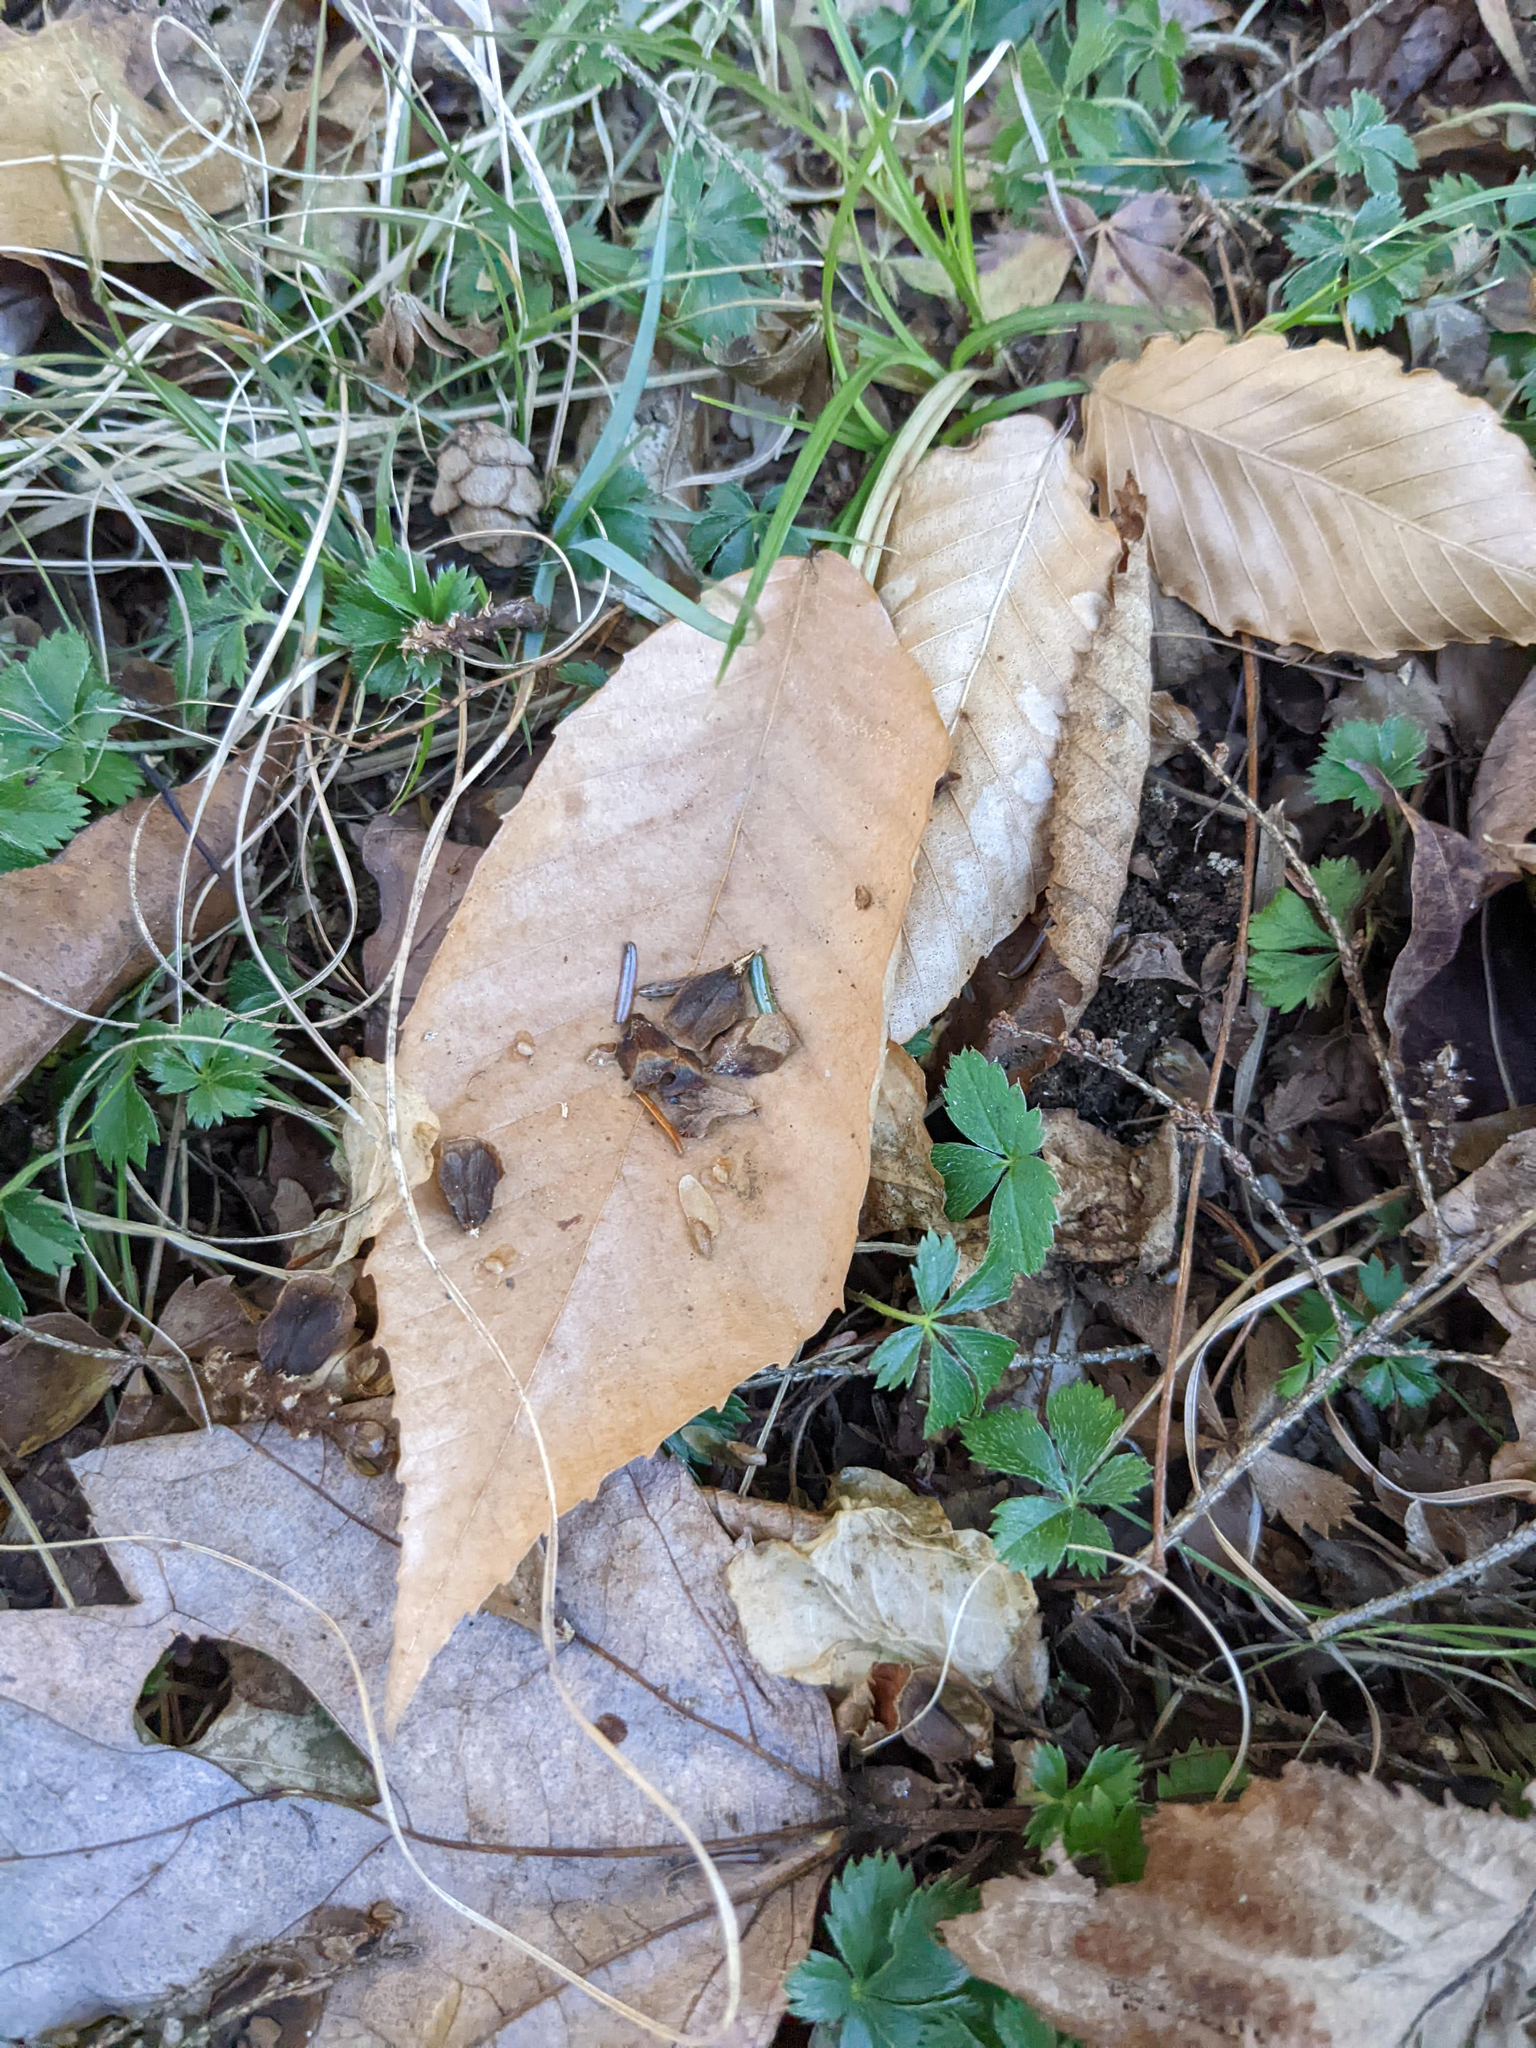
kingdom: Plantae
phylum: Tracheophyta
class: Magnoliopsida
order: Fagales
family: Fagaceae
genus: Fagus
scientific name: Fagus grandifolia
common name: American beech
